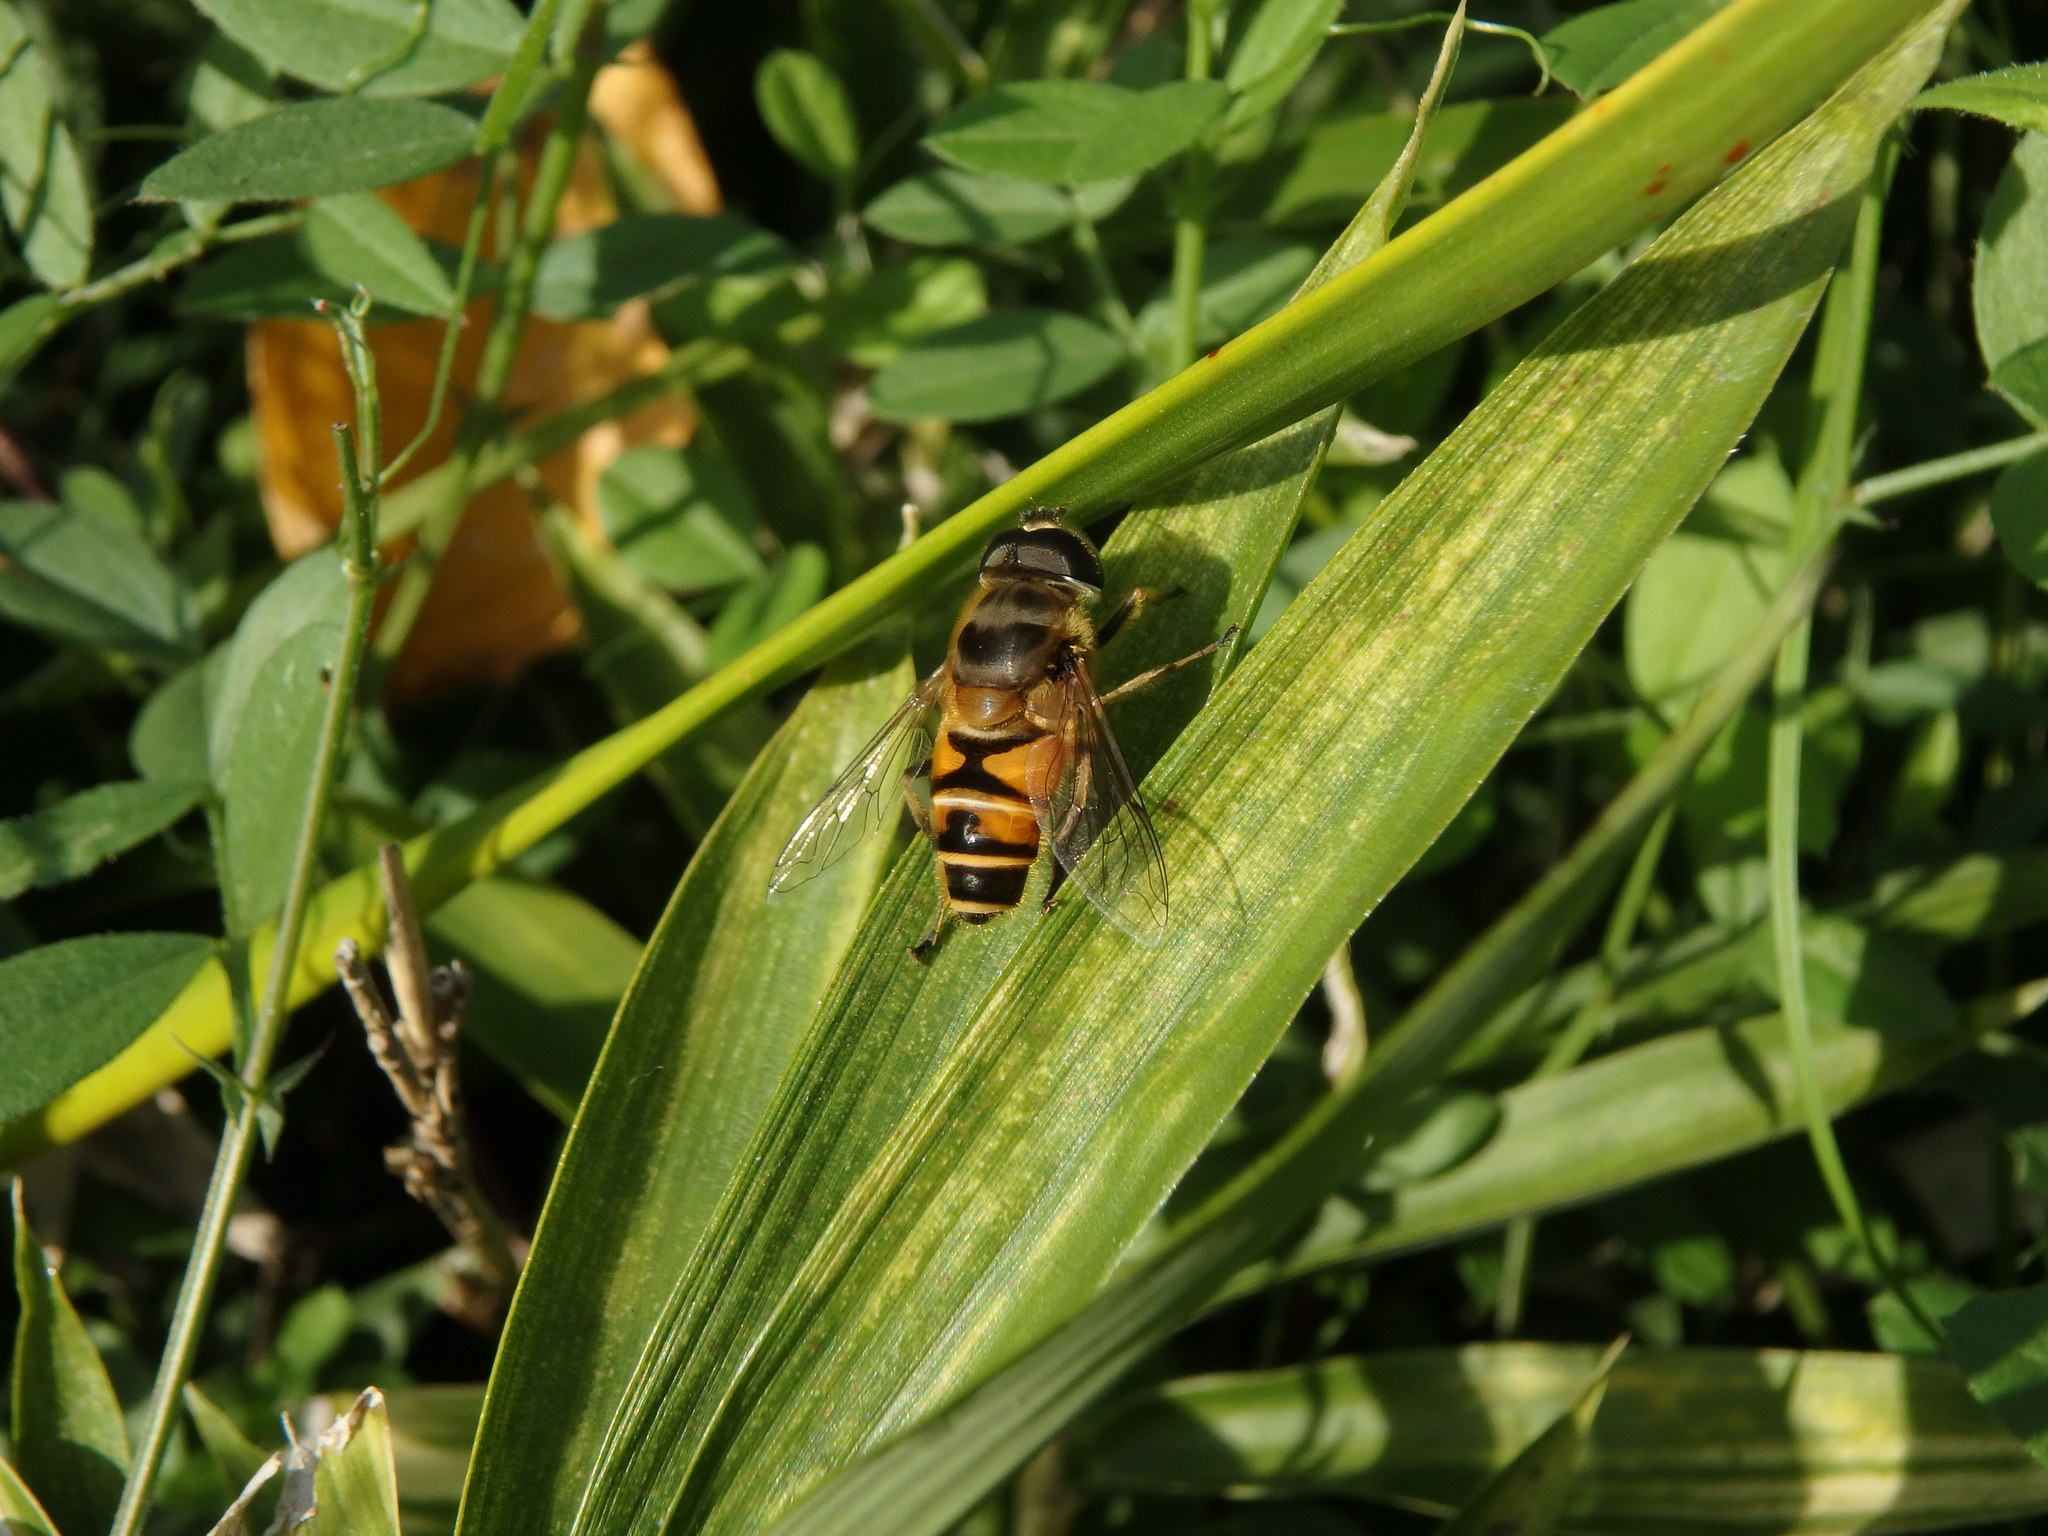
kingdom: Animalia
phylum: Arthropoda
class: Insecta
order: Diptera
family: Syrphidae
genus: Eristalis
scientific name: Eristalis cerealis
